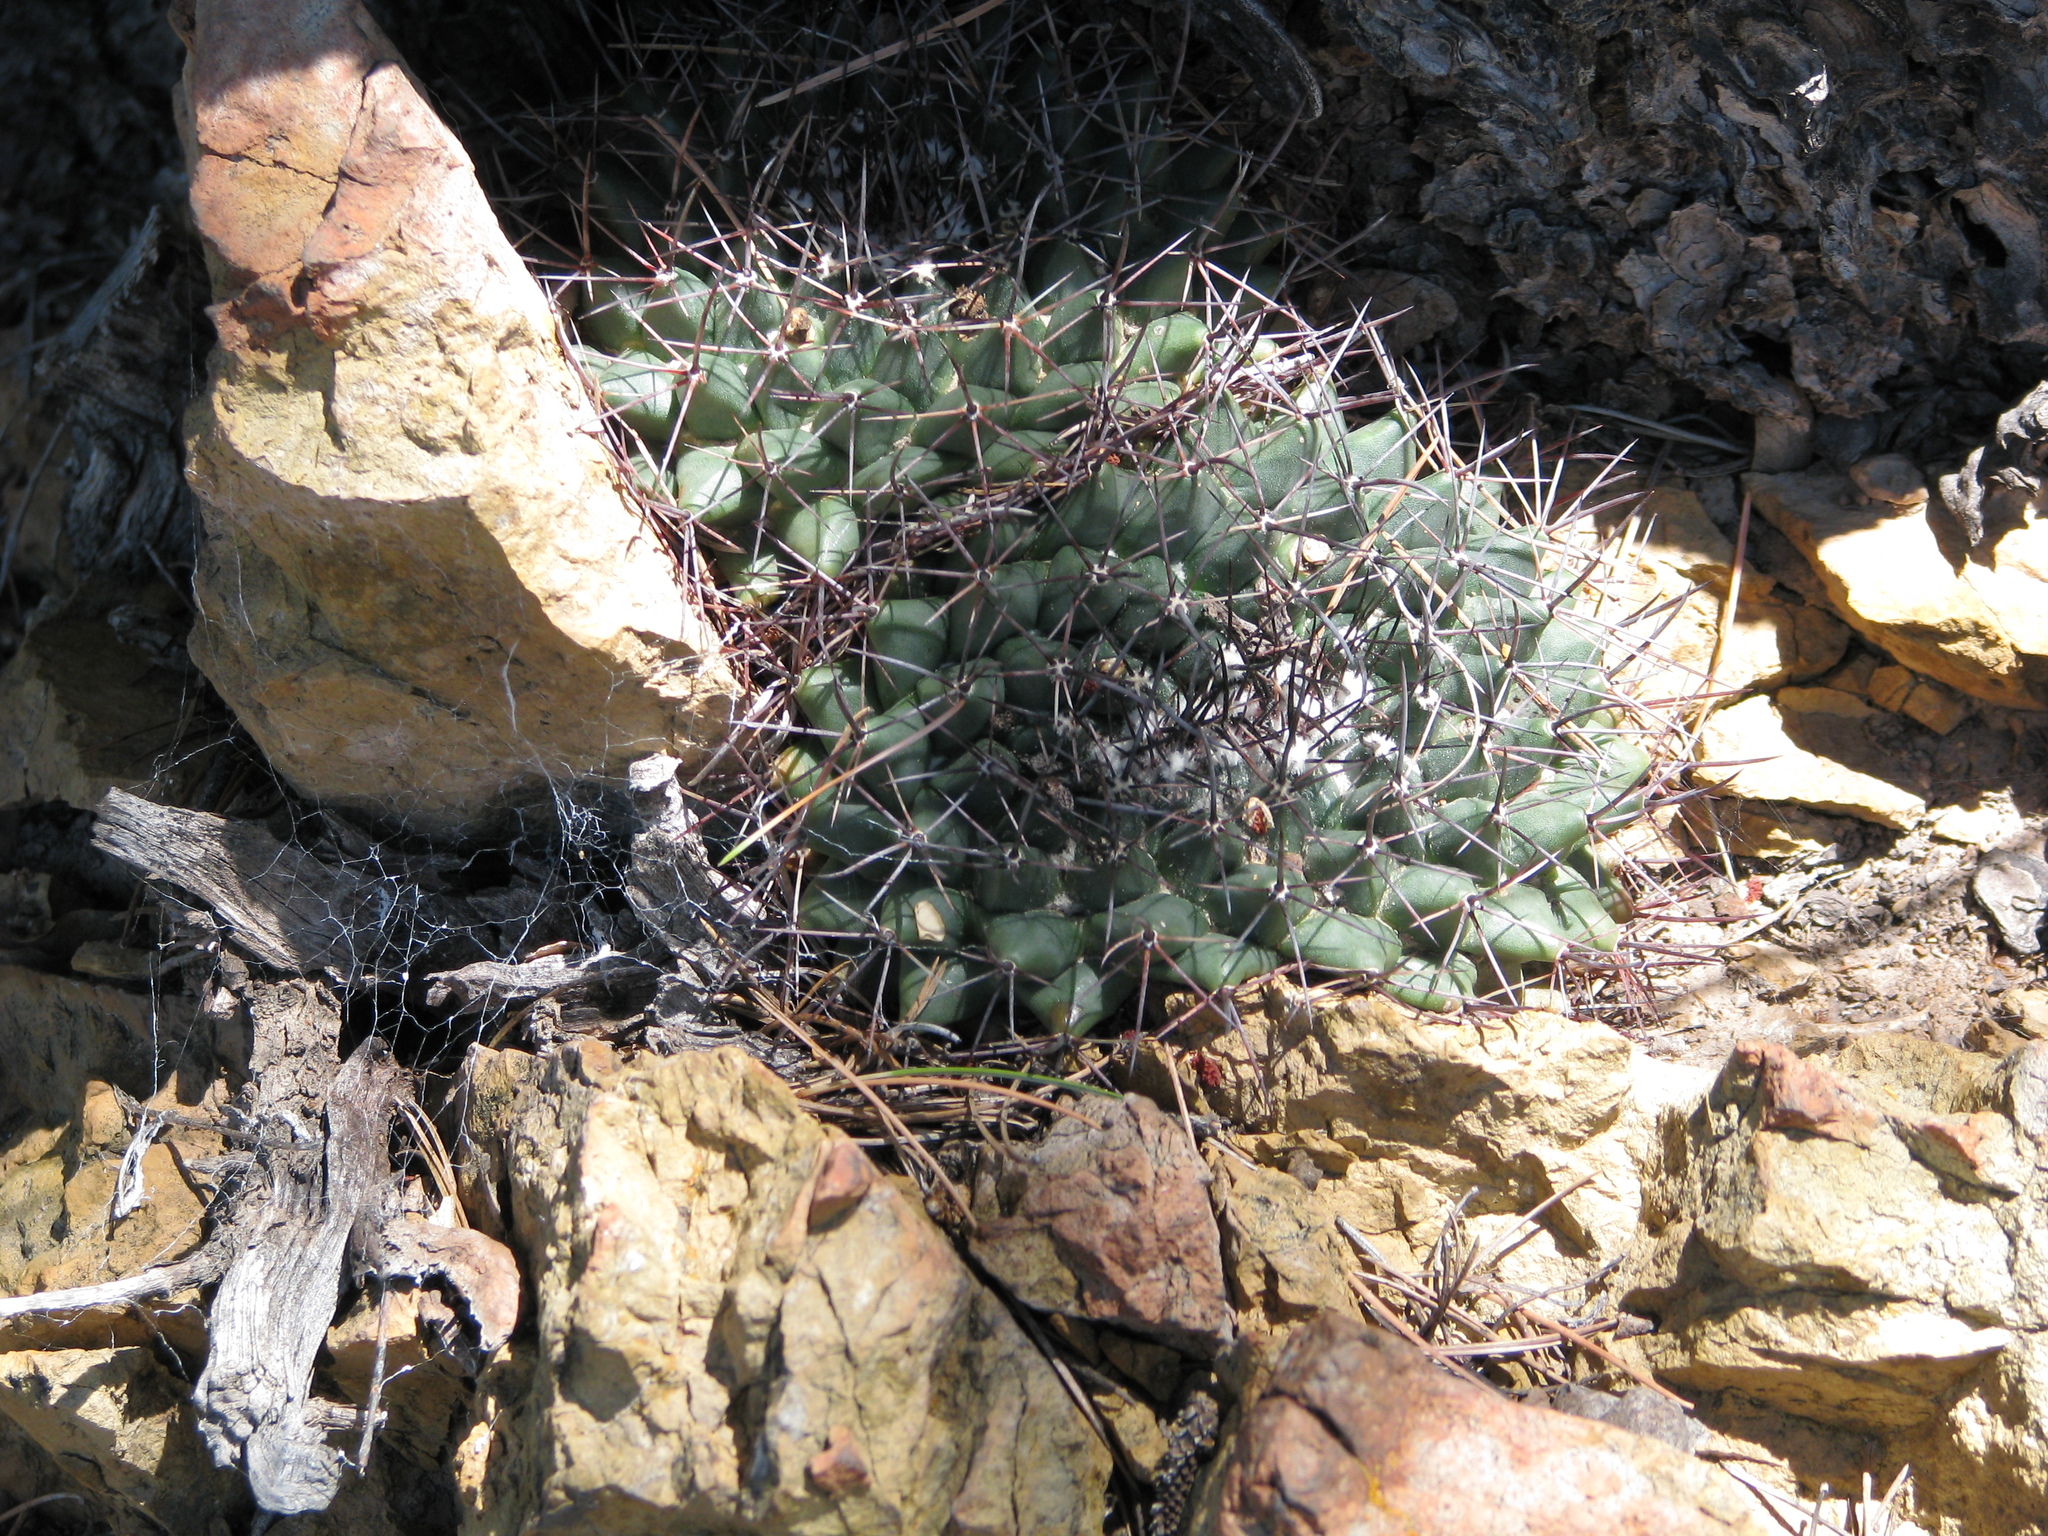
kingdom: Plantae
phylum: Tracheophyta
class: Magnoliopsida
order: Caryophyllales
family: Cactaceae
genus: Mammillaria
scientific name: Mammillaria heyderi
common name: Little nipple cactus
